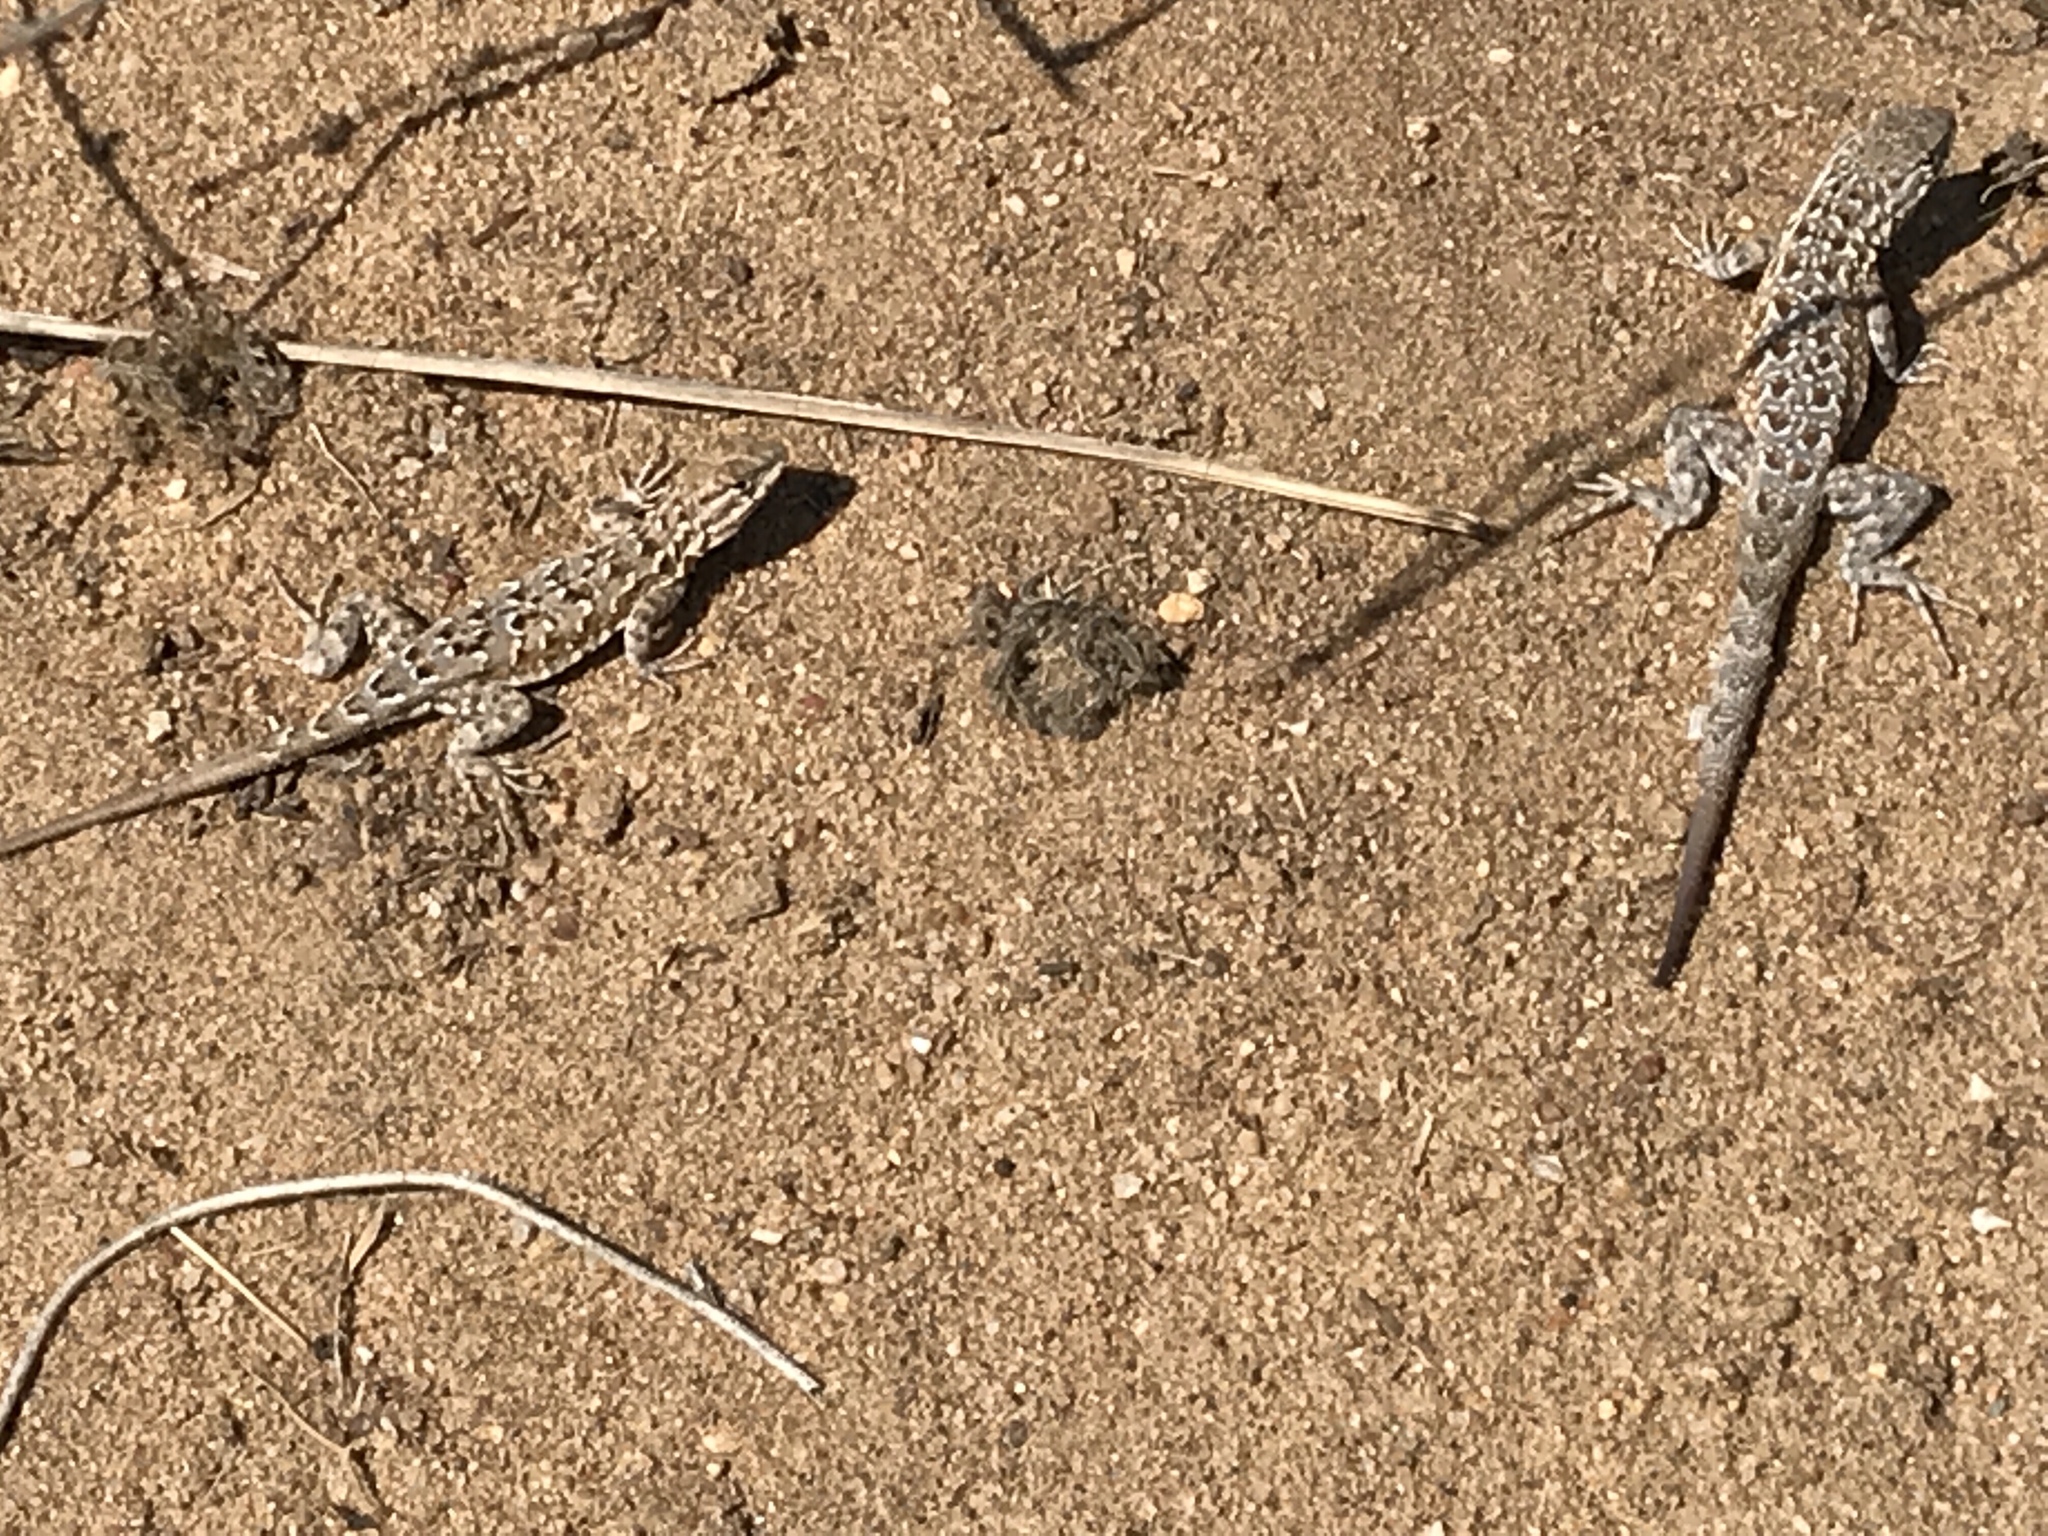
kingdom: Animalia
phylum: Chordata
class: Squamata
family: Phrynosomatidae
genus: Uta
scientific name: Uta stansburiana
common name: Side-blotched lizard
